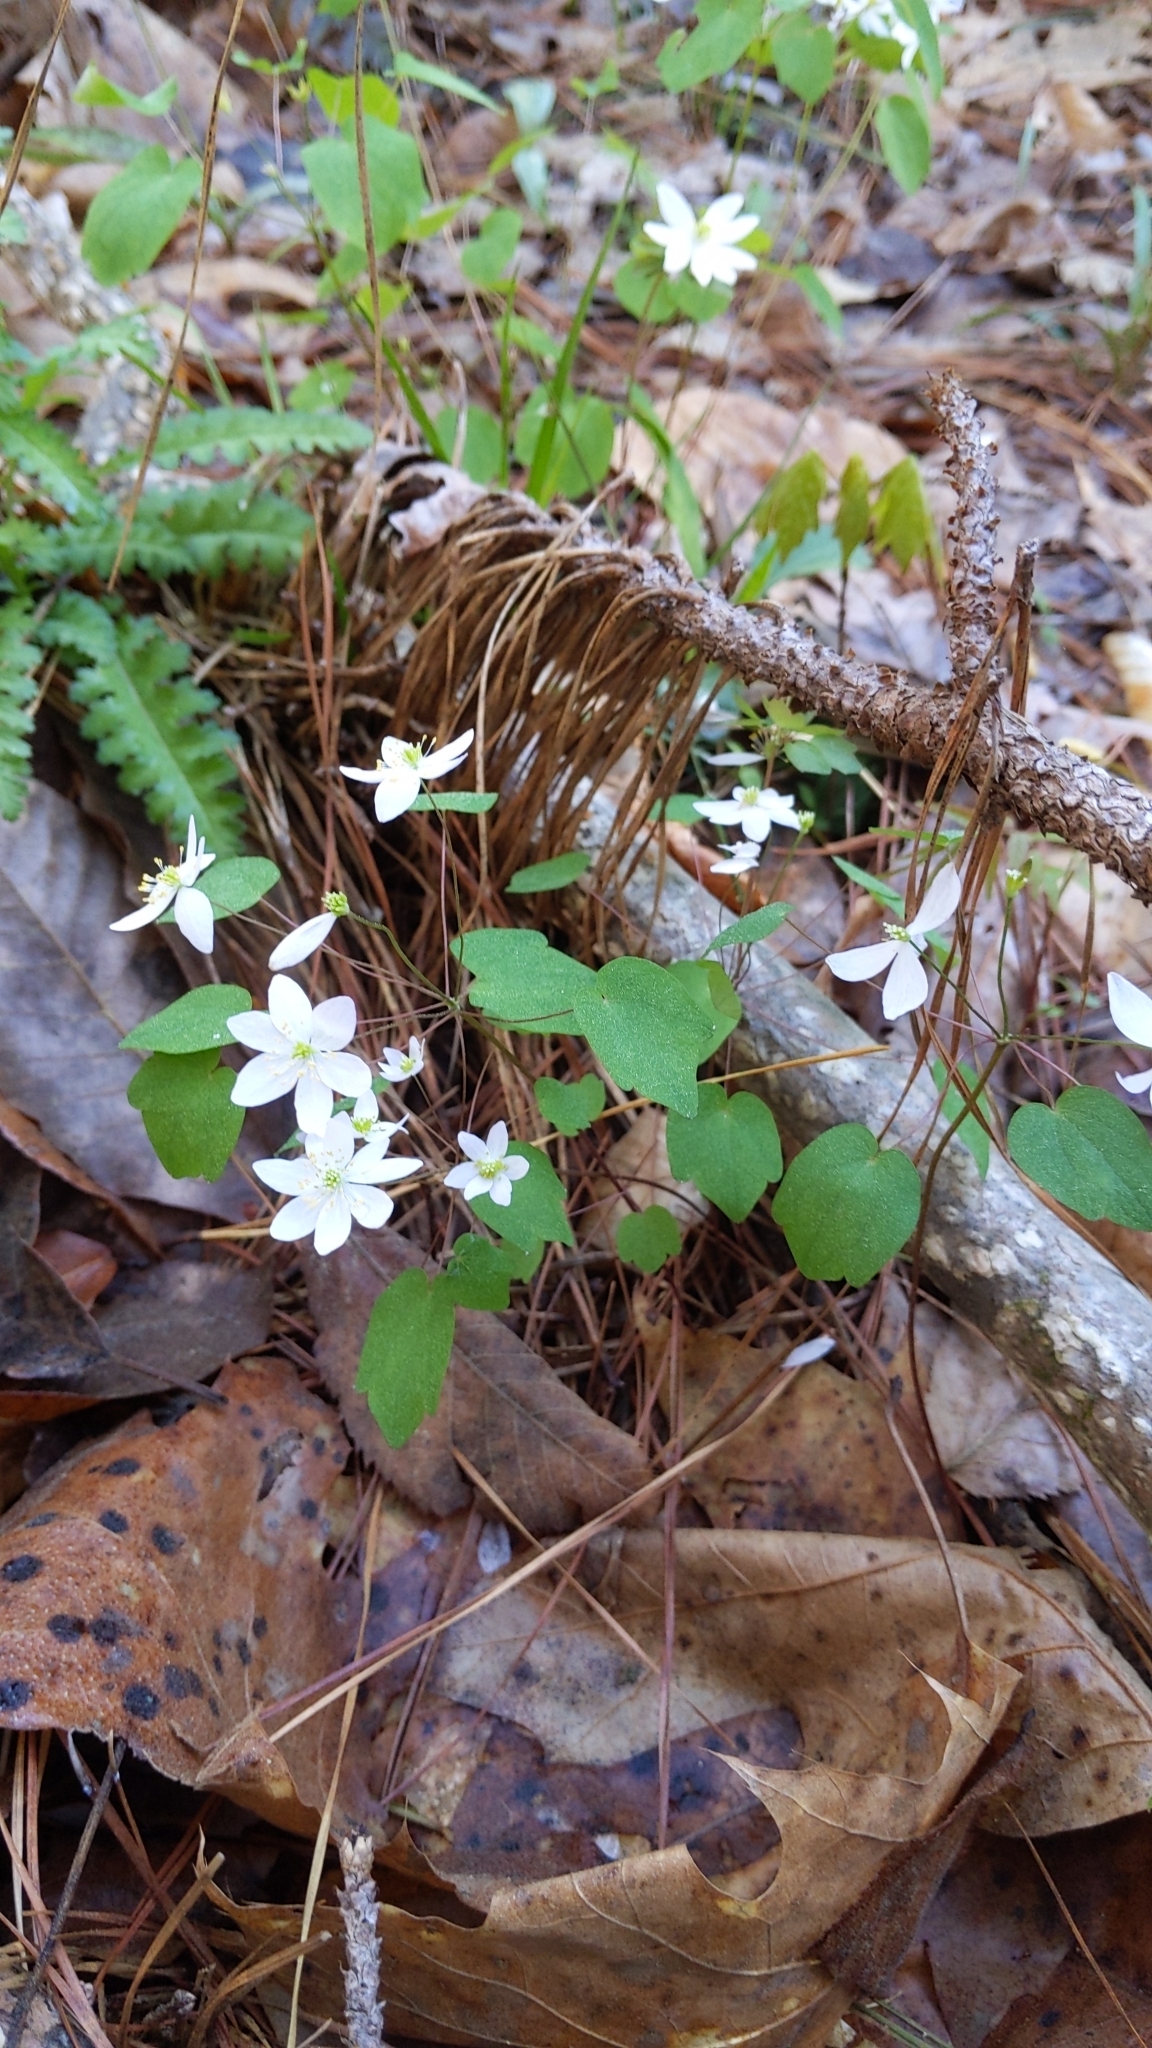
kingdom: Plantae
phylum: Tracheophyta
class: Magnoliopsida
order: Ranunculales
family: Ranunculaceae
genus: Thalictrum
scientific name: Thalictrum thalictroides
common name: Rue-anemone
